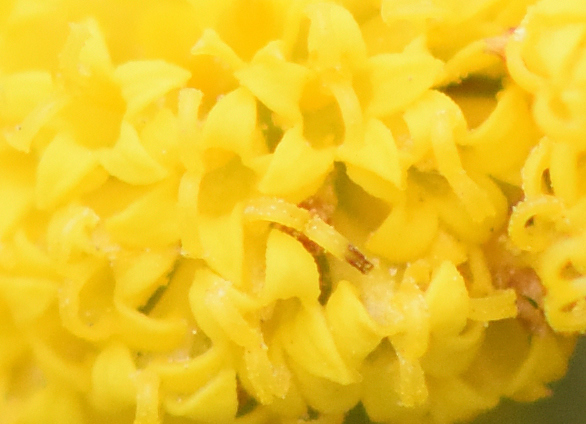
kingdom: Plantae
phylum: Tracheophyta
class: Magnoliopsida
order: Asterales
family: Asteraceae
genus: Athanasia
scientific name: Athanasia trifurcata
